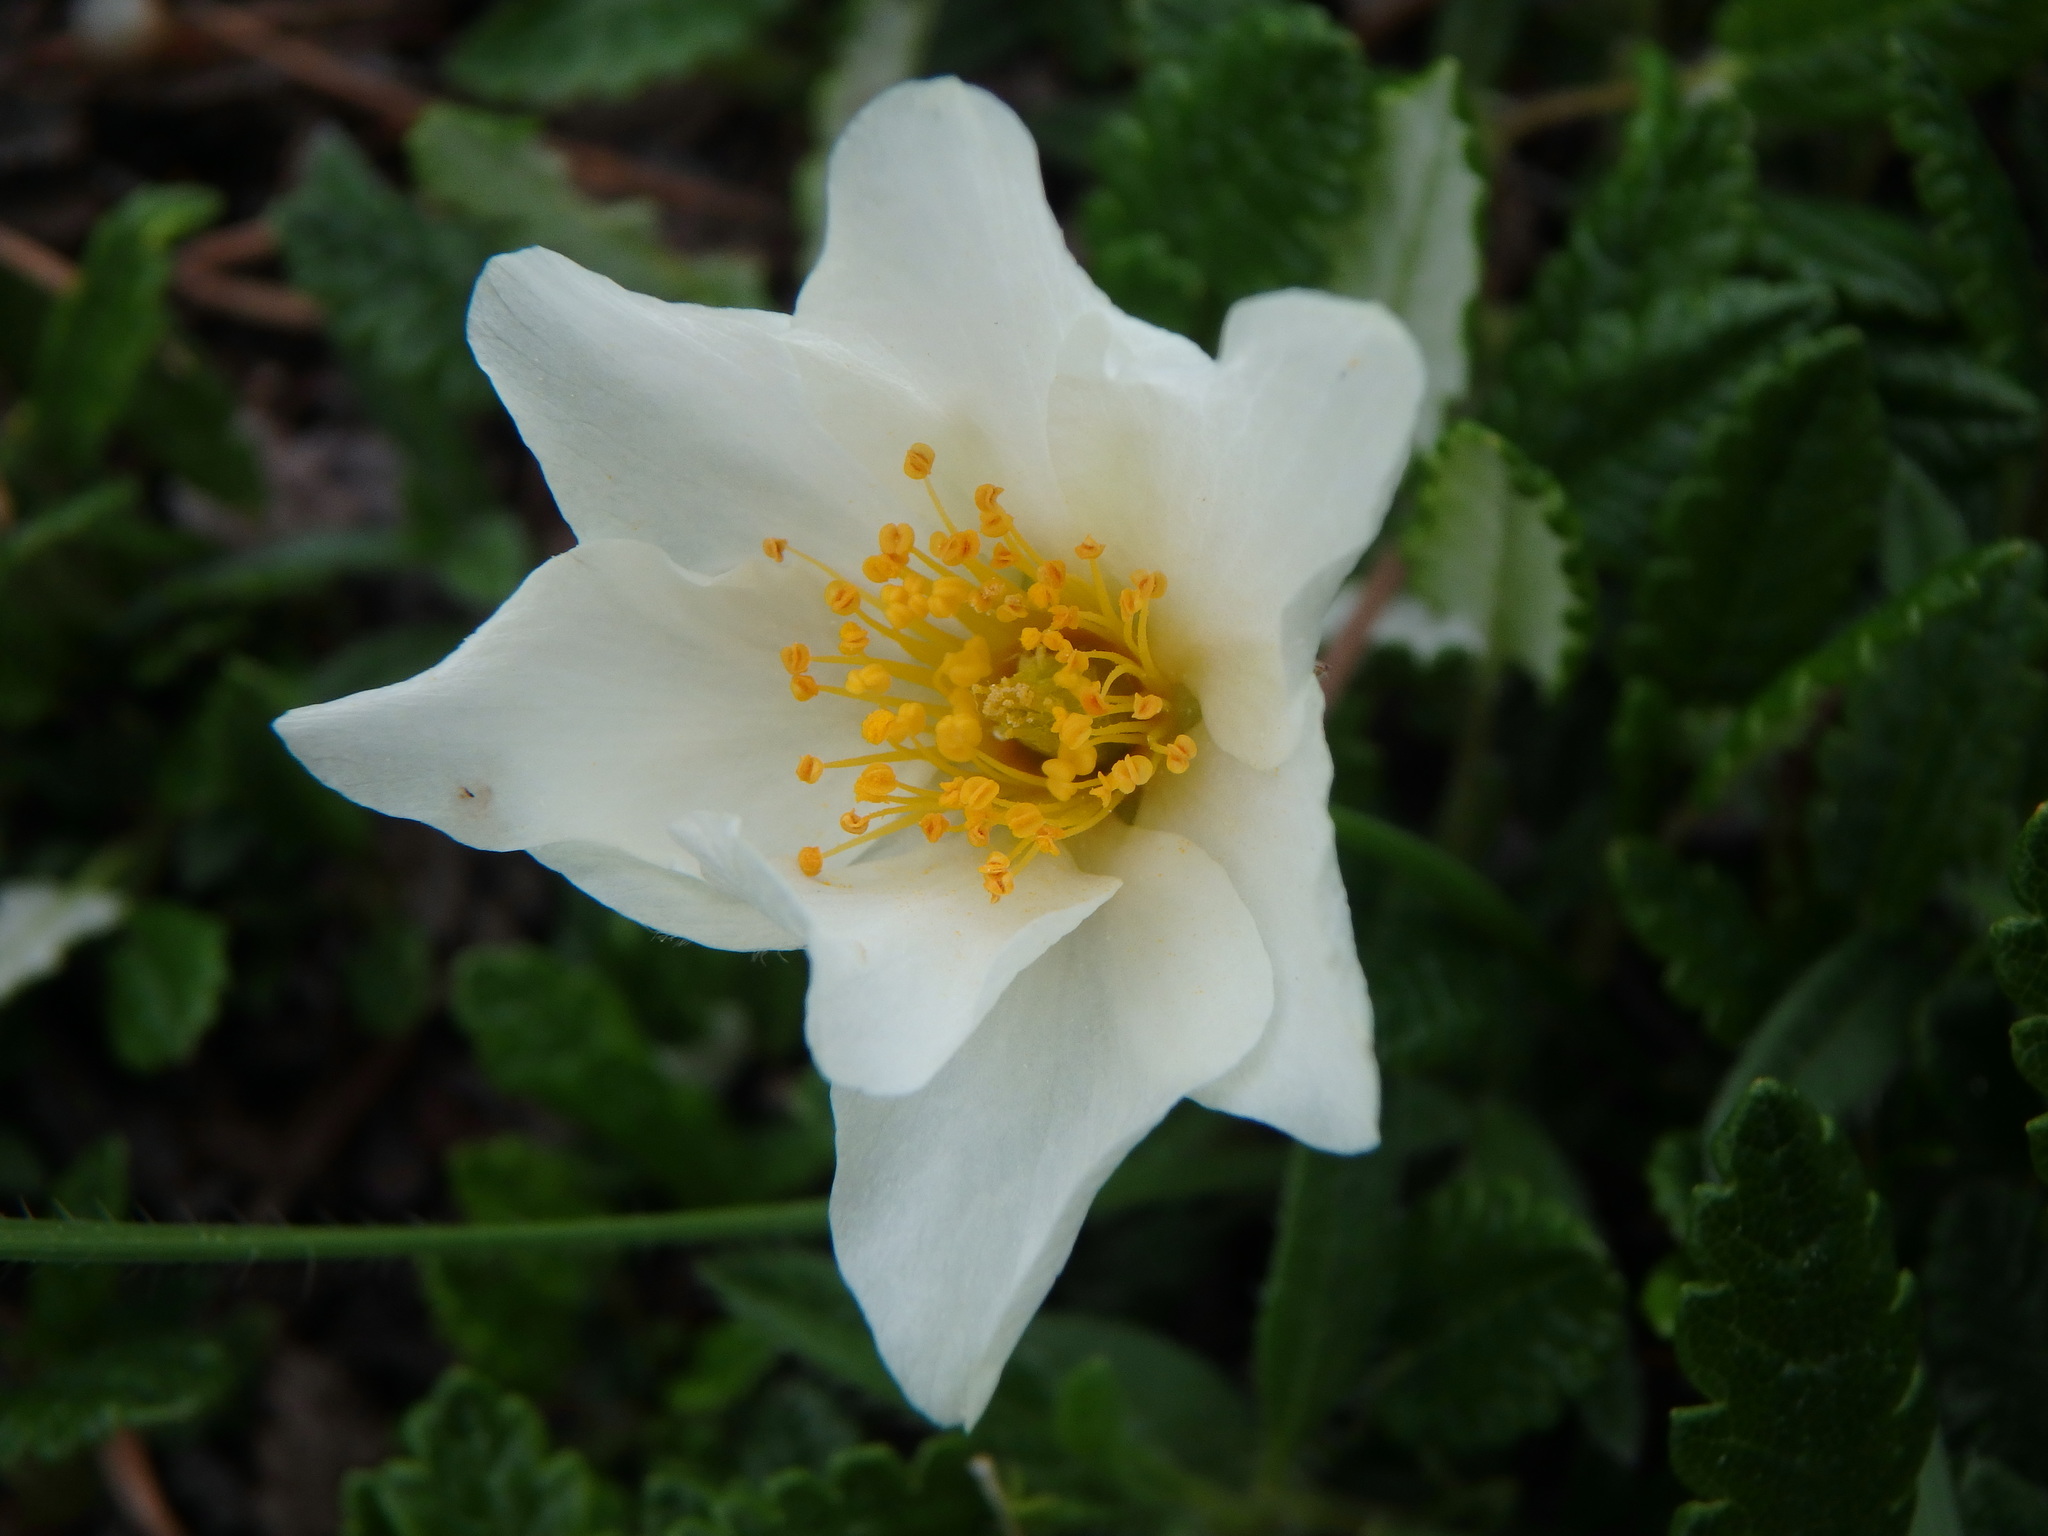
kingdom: Plantae
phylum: Tracheophyta
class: Magnoliopsida
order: Rosales
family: Rosaceae
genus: Dryas
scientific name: Dryas octopetala
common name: Eight-petal mountain-avens
